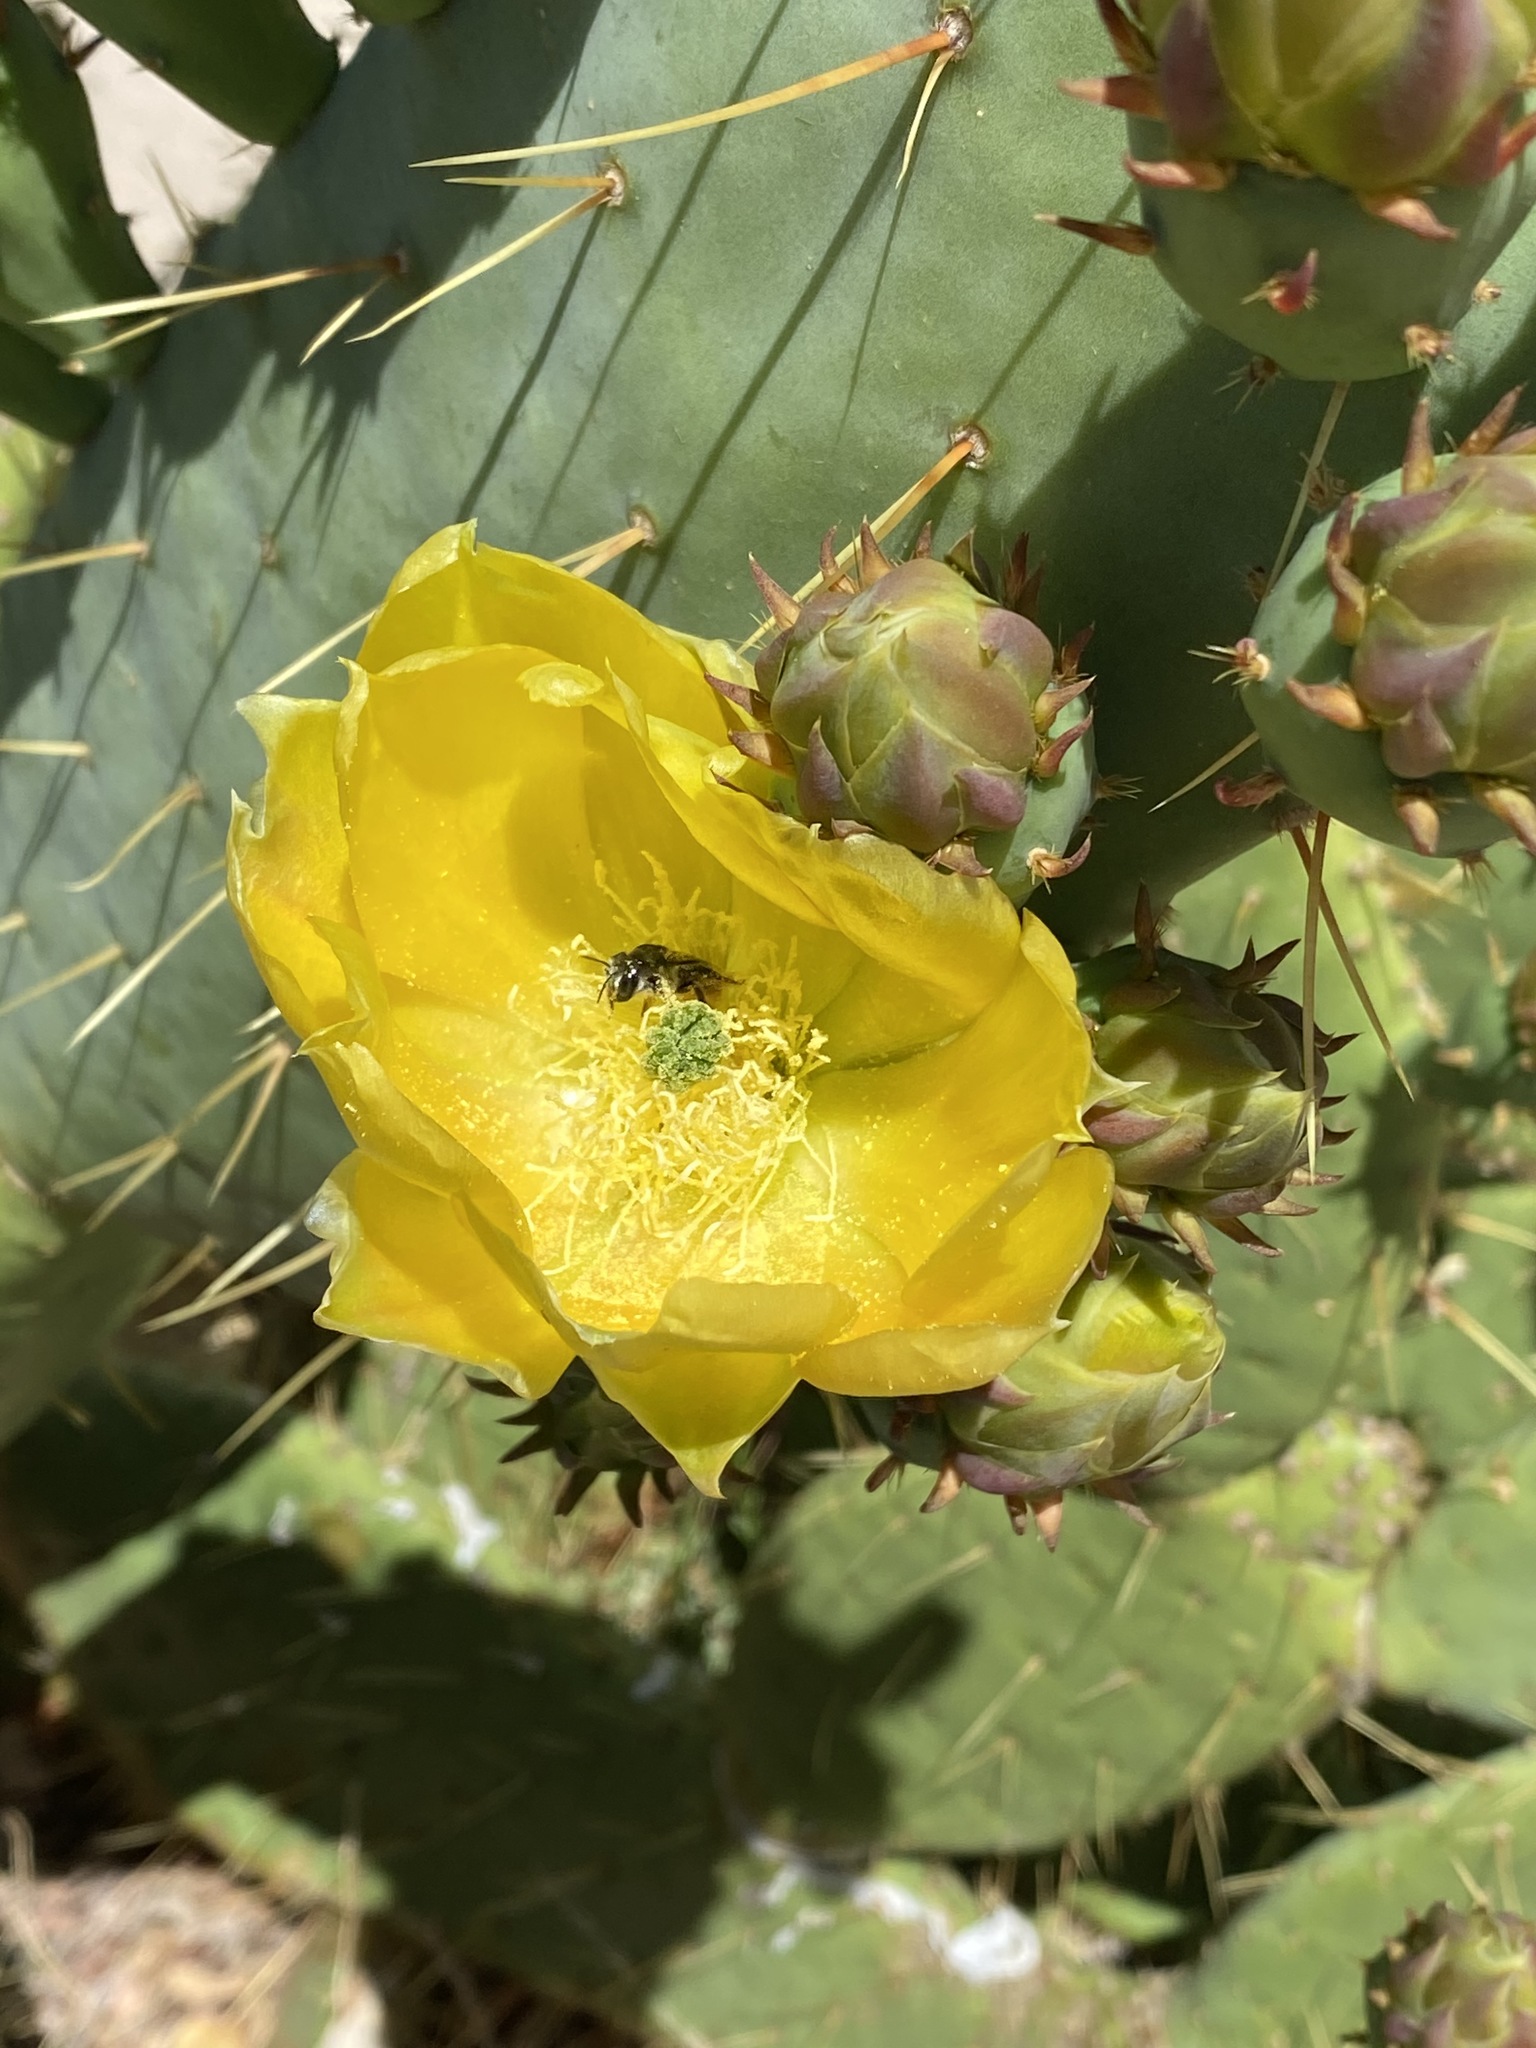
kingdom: Animalia
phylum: Arthropoda
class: Insecta
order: Hymenoptera
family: Megachilidae
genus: Lithurgopsis
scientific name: Lithurgopsis apicalis
